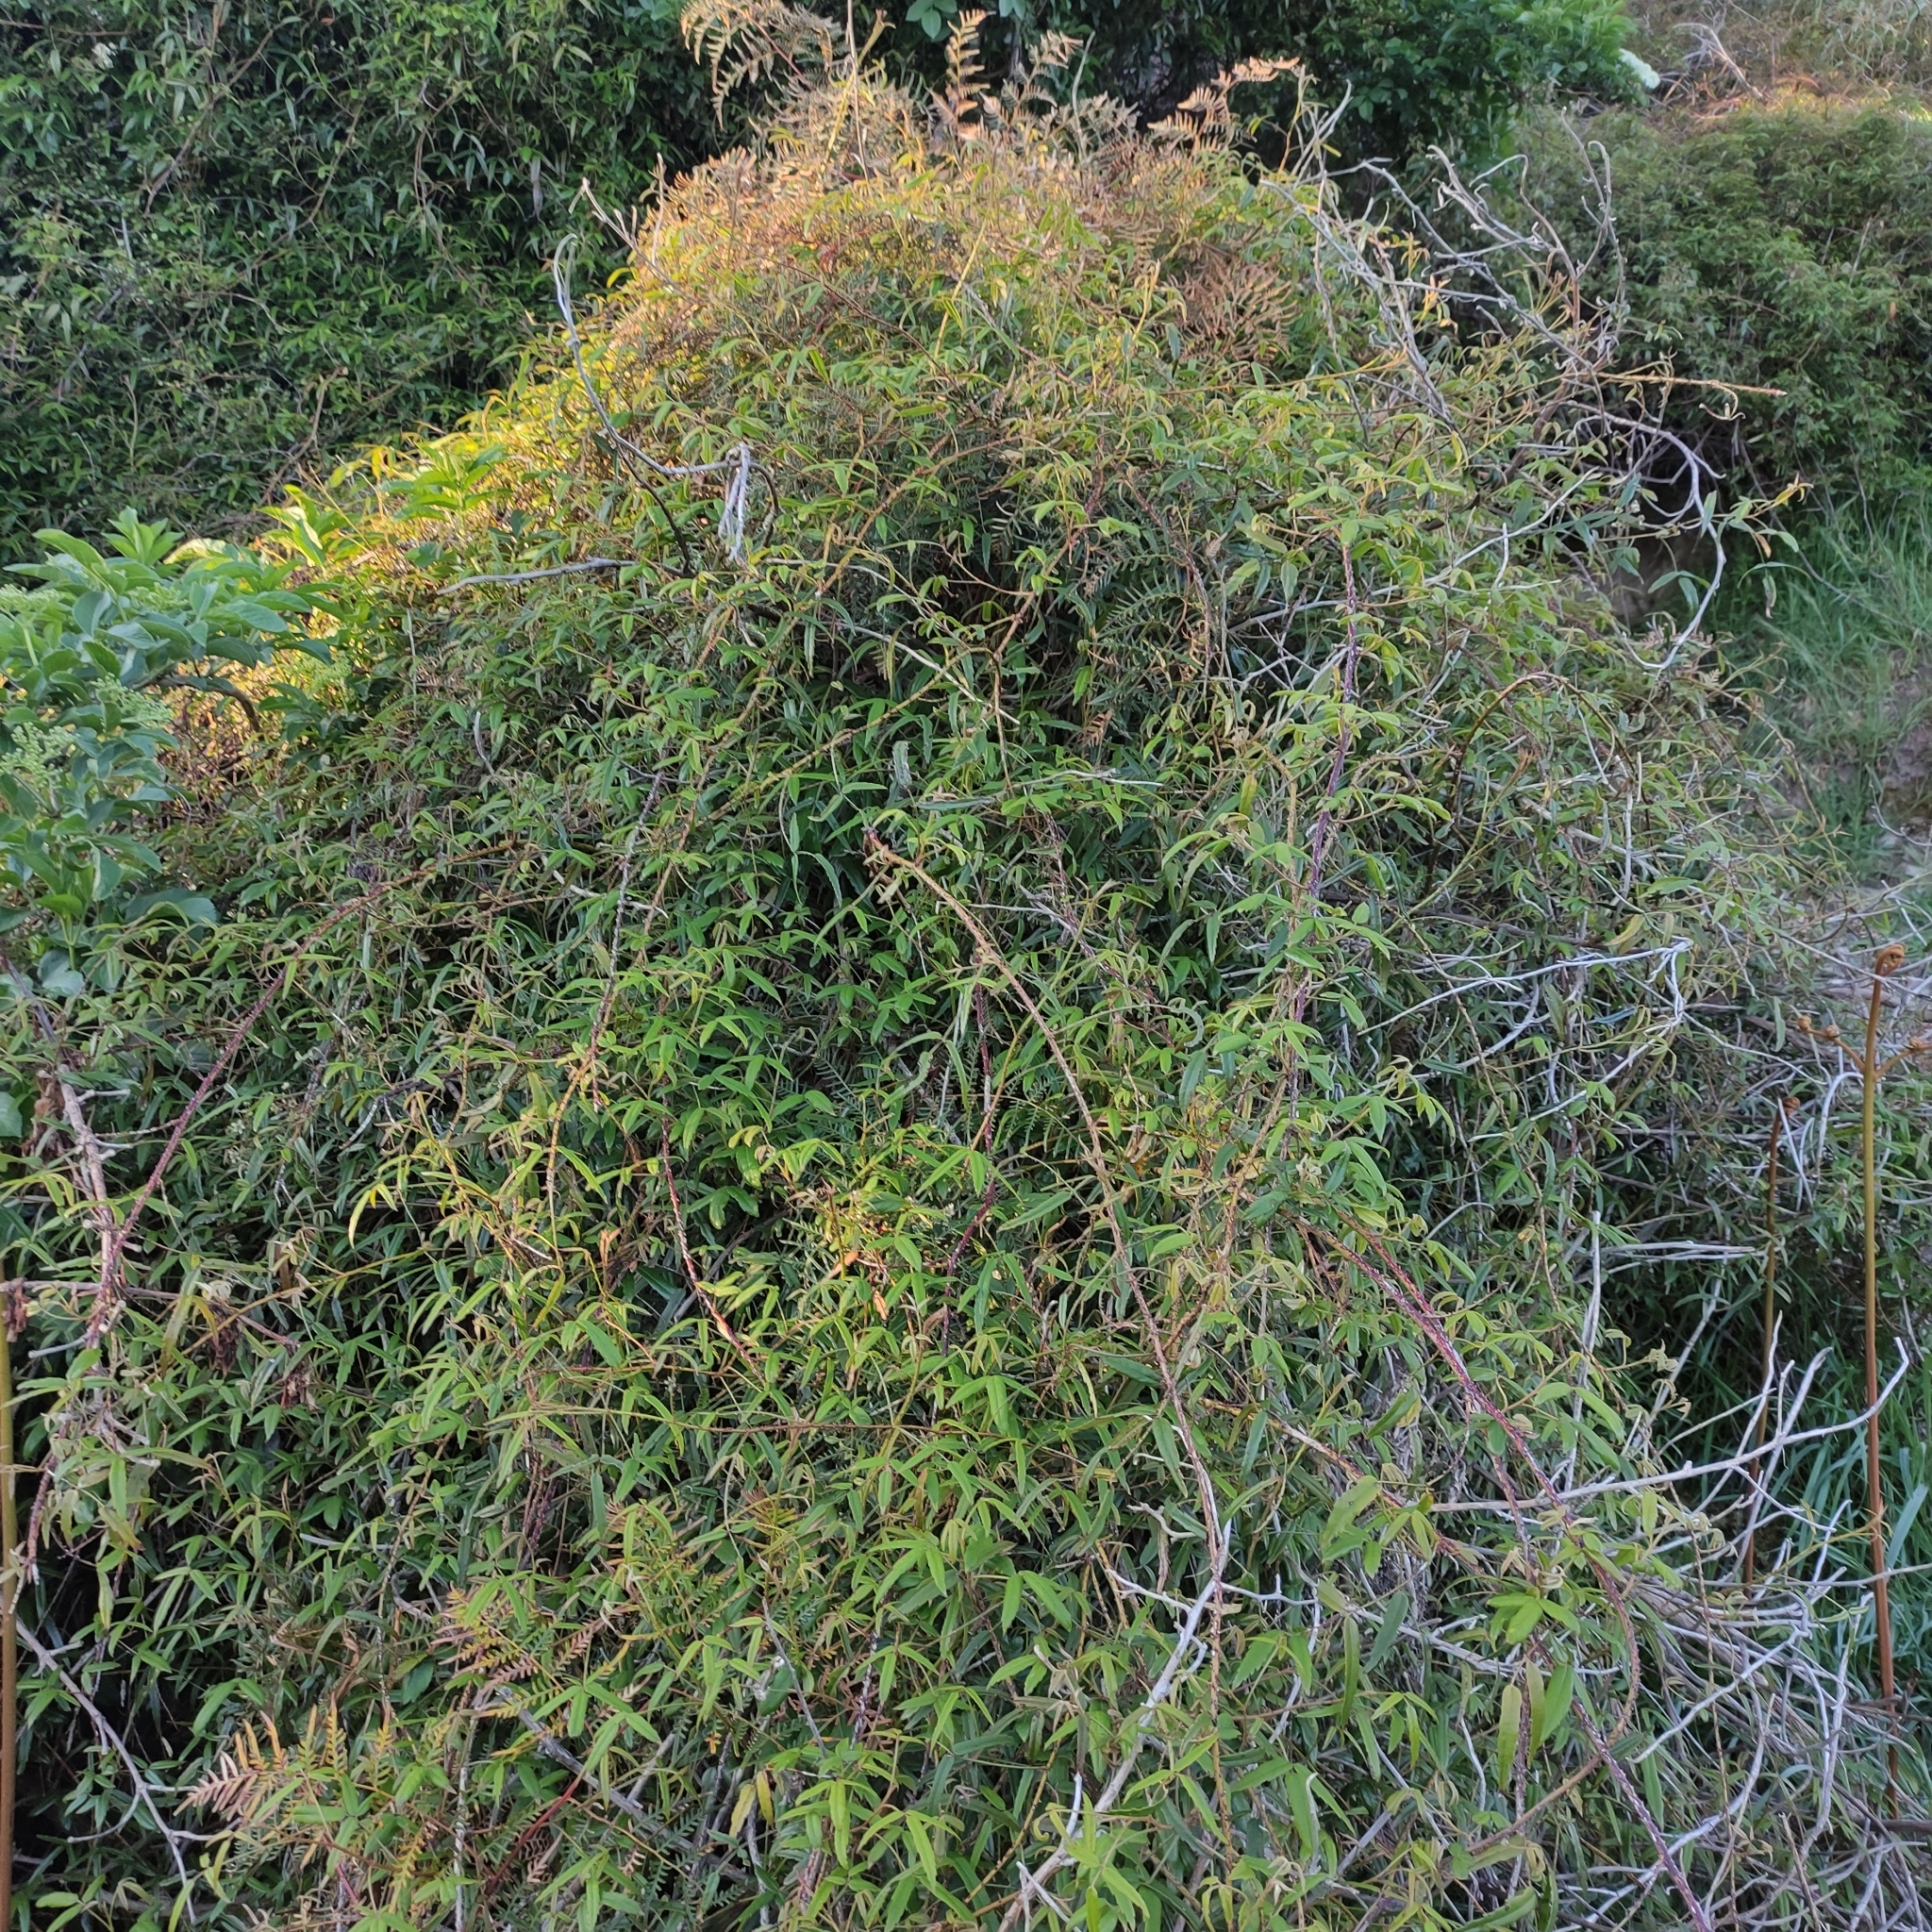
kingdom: Plantae
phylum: Tracheophyta
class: Magnoliopsida
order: Rosales
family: Rosaceae
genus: Rubus
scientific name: Rubus schmidelioides
